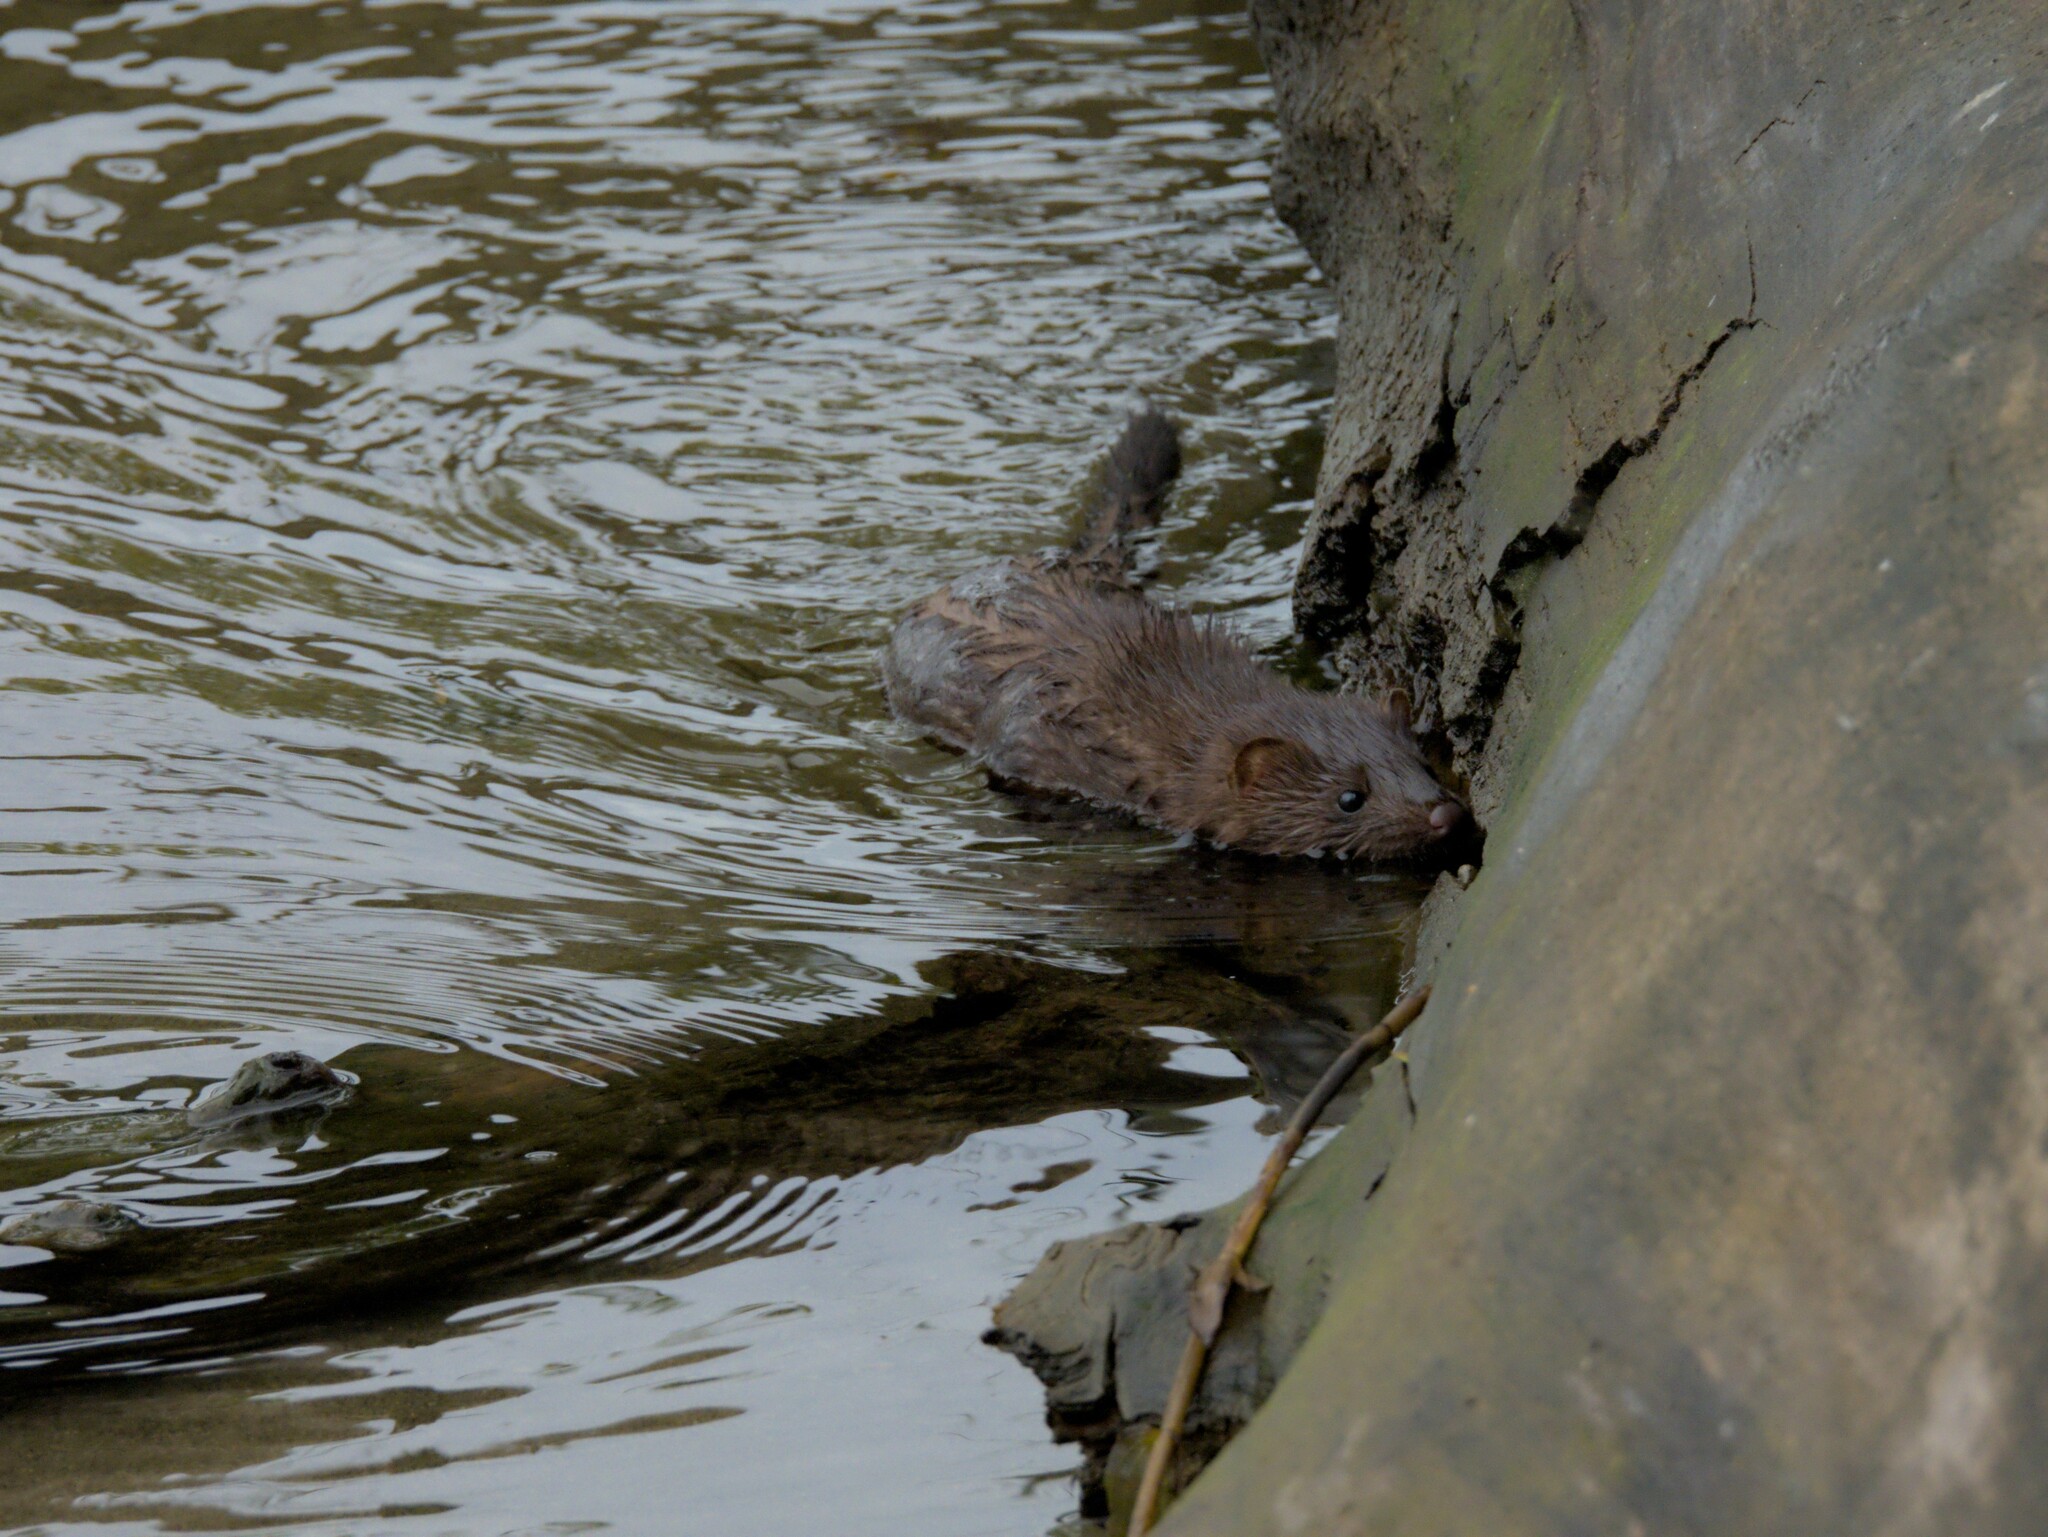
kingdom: Animalia
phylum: Chordata
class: Mammalia
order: Carnivora
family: Mustelidae
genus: Mustela
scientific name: Mustela
